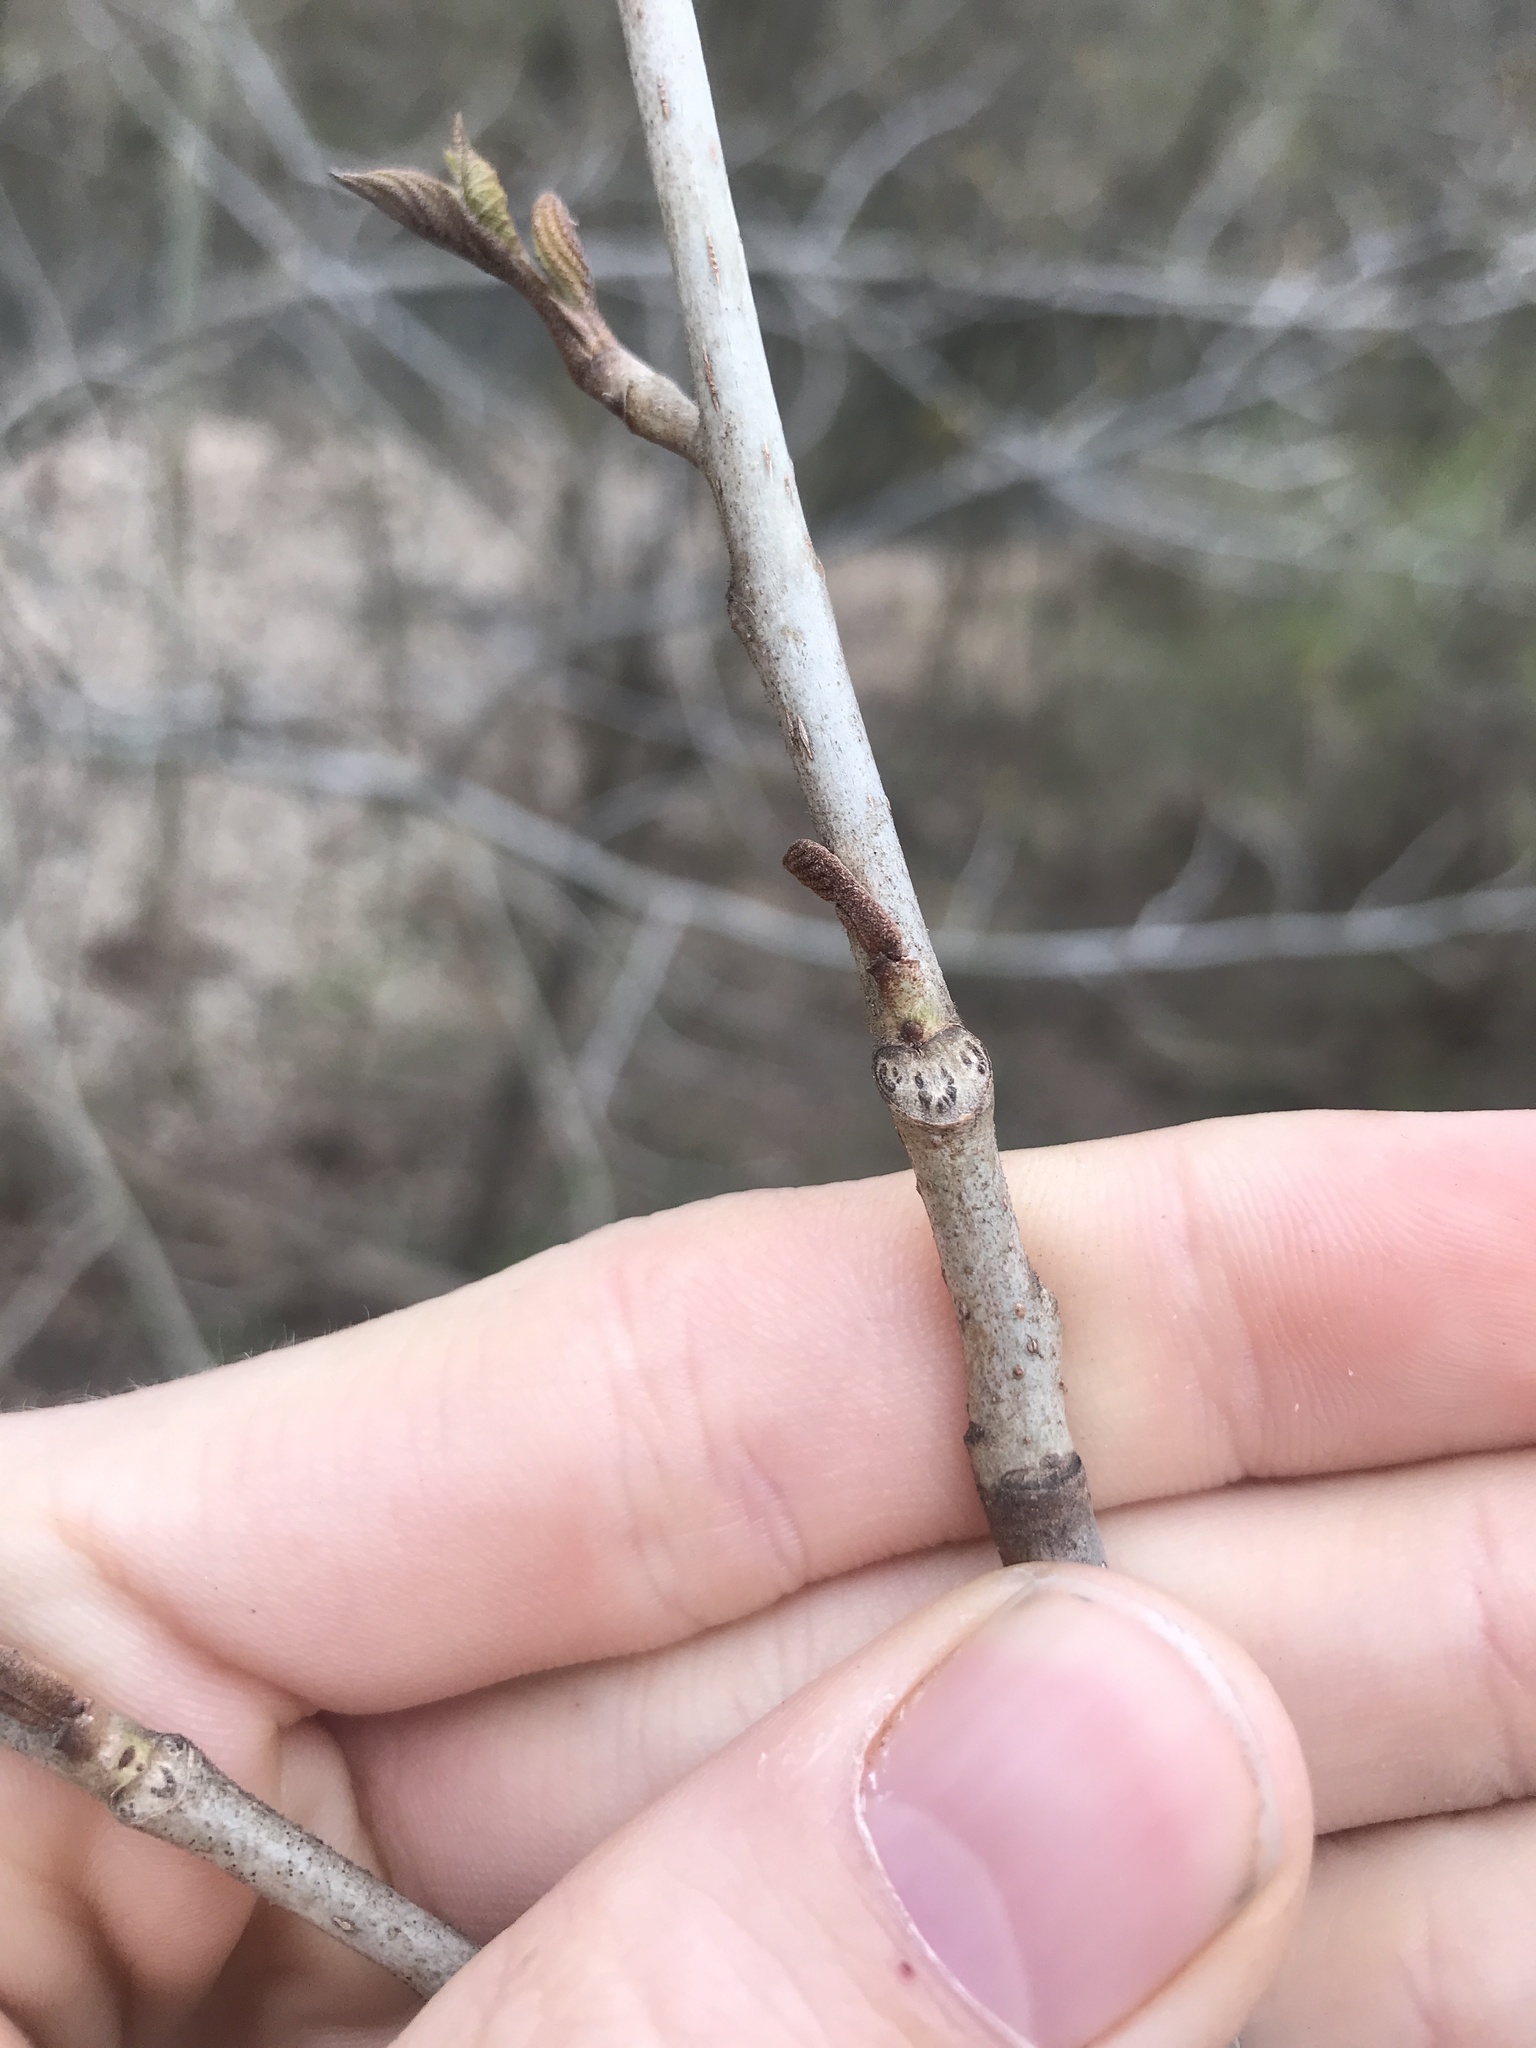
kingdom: Plantae
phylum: Tracheophyta
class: Magnoliopsida
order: Fagales
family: Juglandaceae
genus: Pterocarya
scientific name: Pterocarya stenoptera
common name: Chinese wingnut
